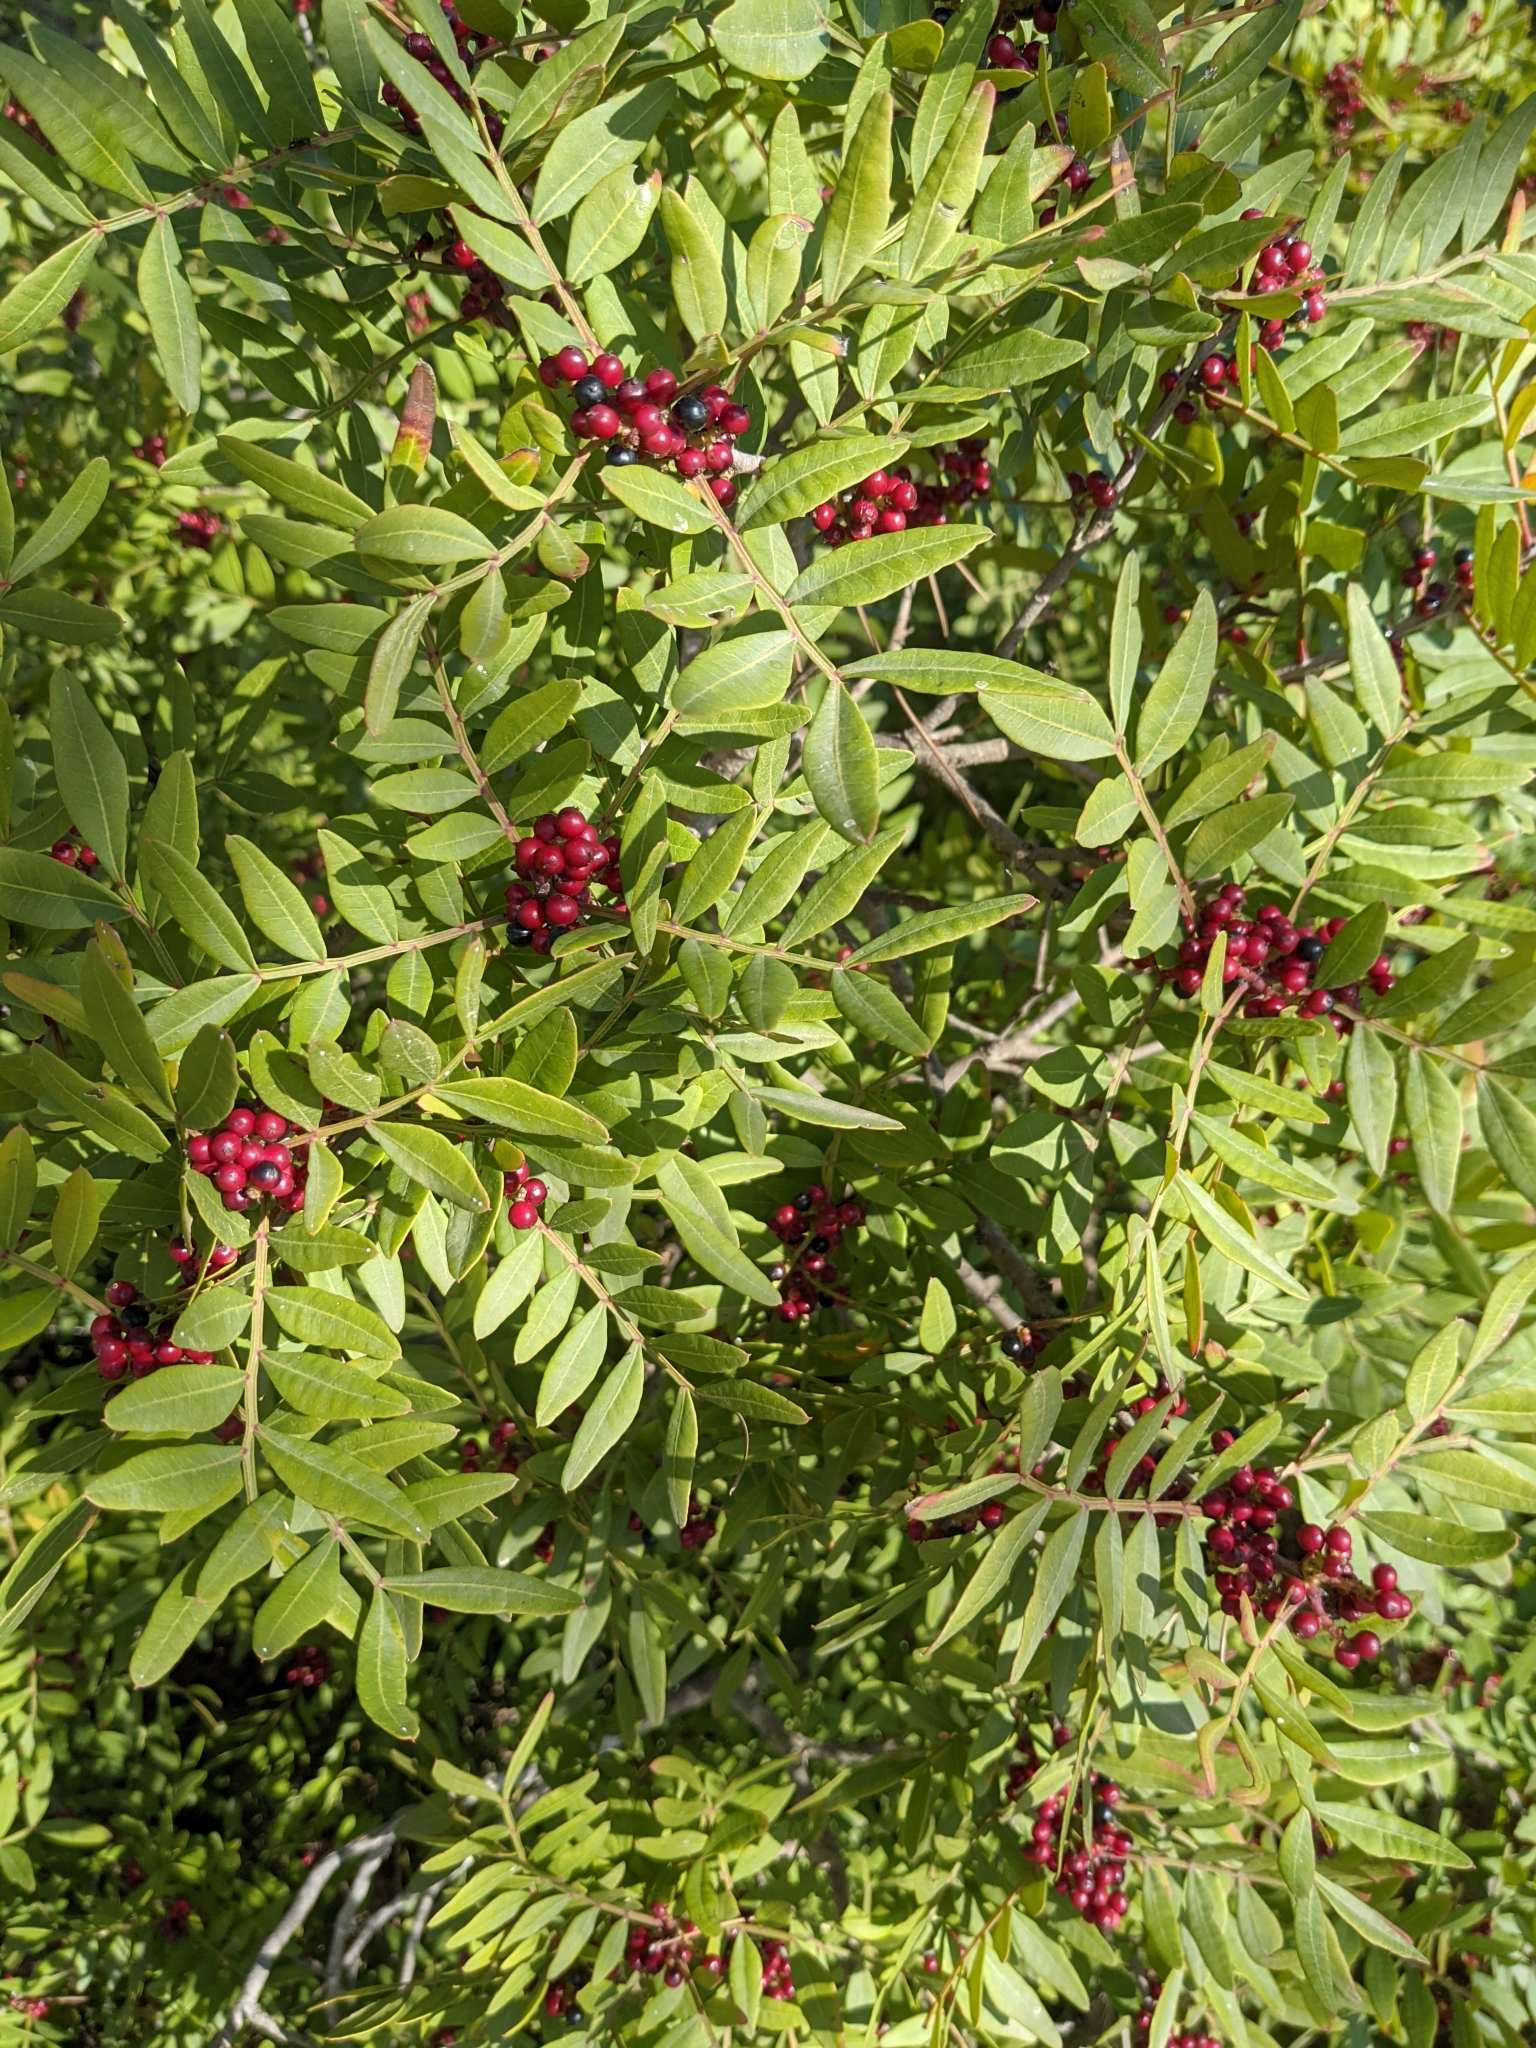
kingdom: Plantae
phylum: Tracheophyta
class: Magnoliopsida
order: Sapindales
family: Anacardiaceae
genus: Pistacia
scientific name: Pistacia lentiscus
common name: Lentisk
